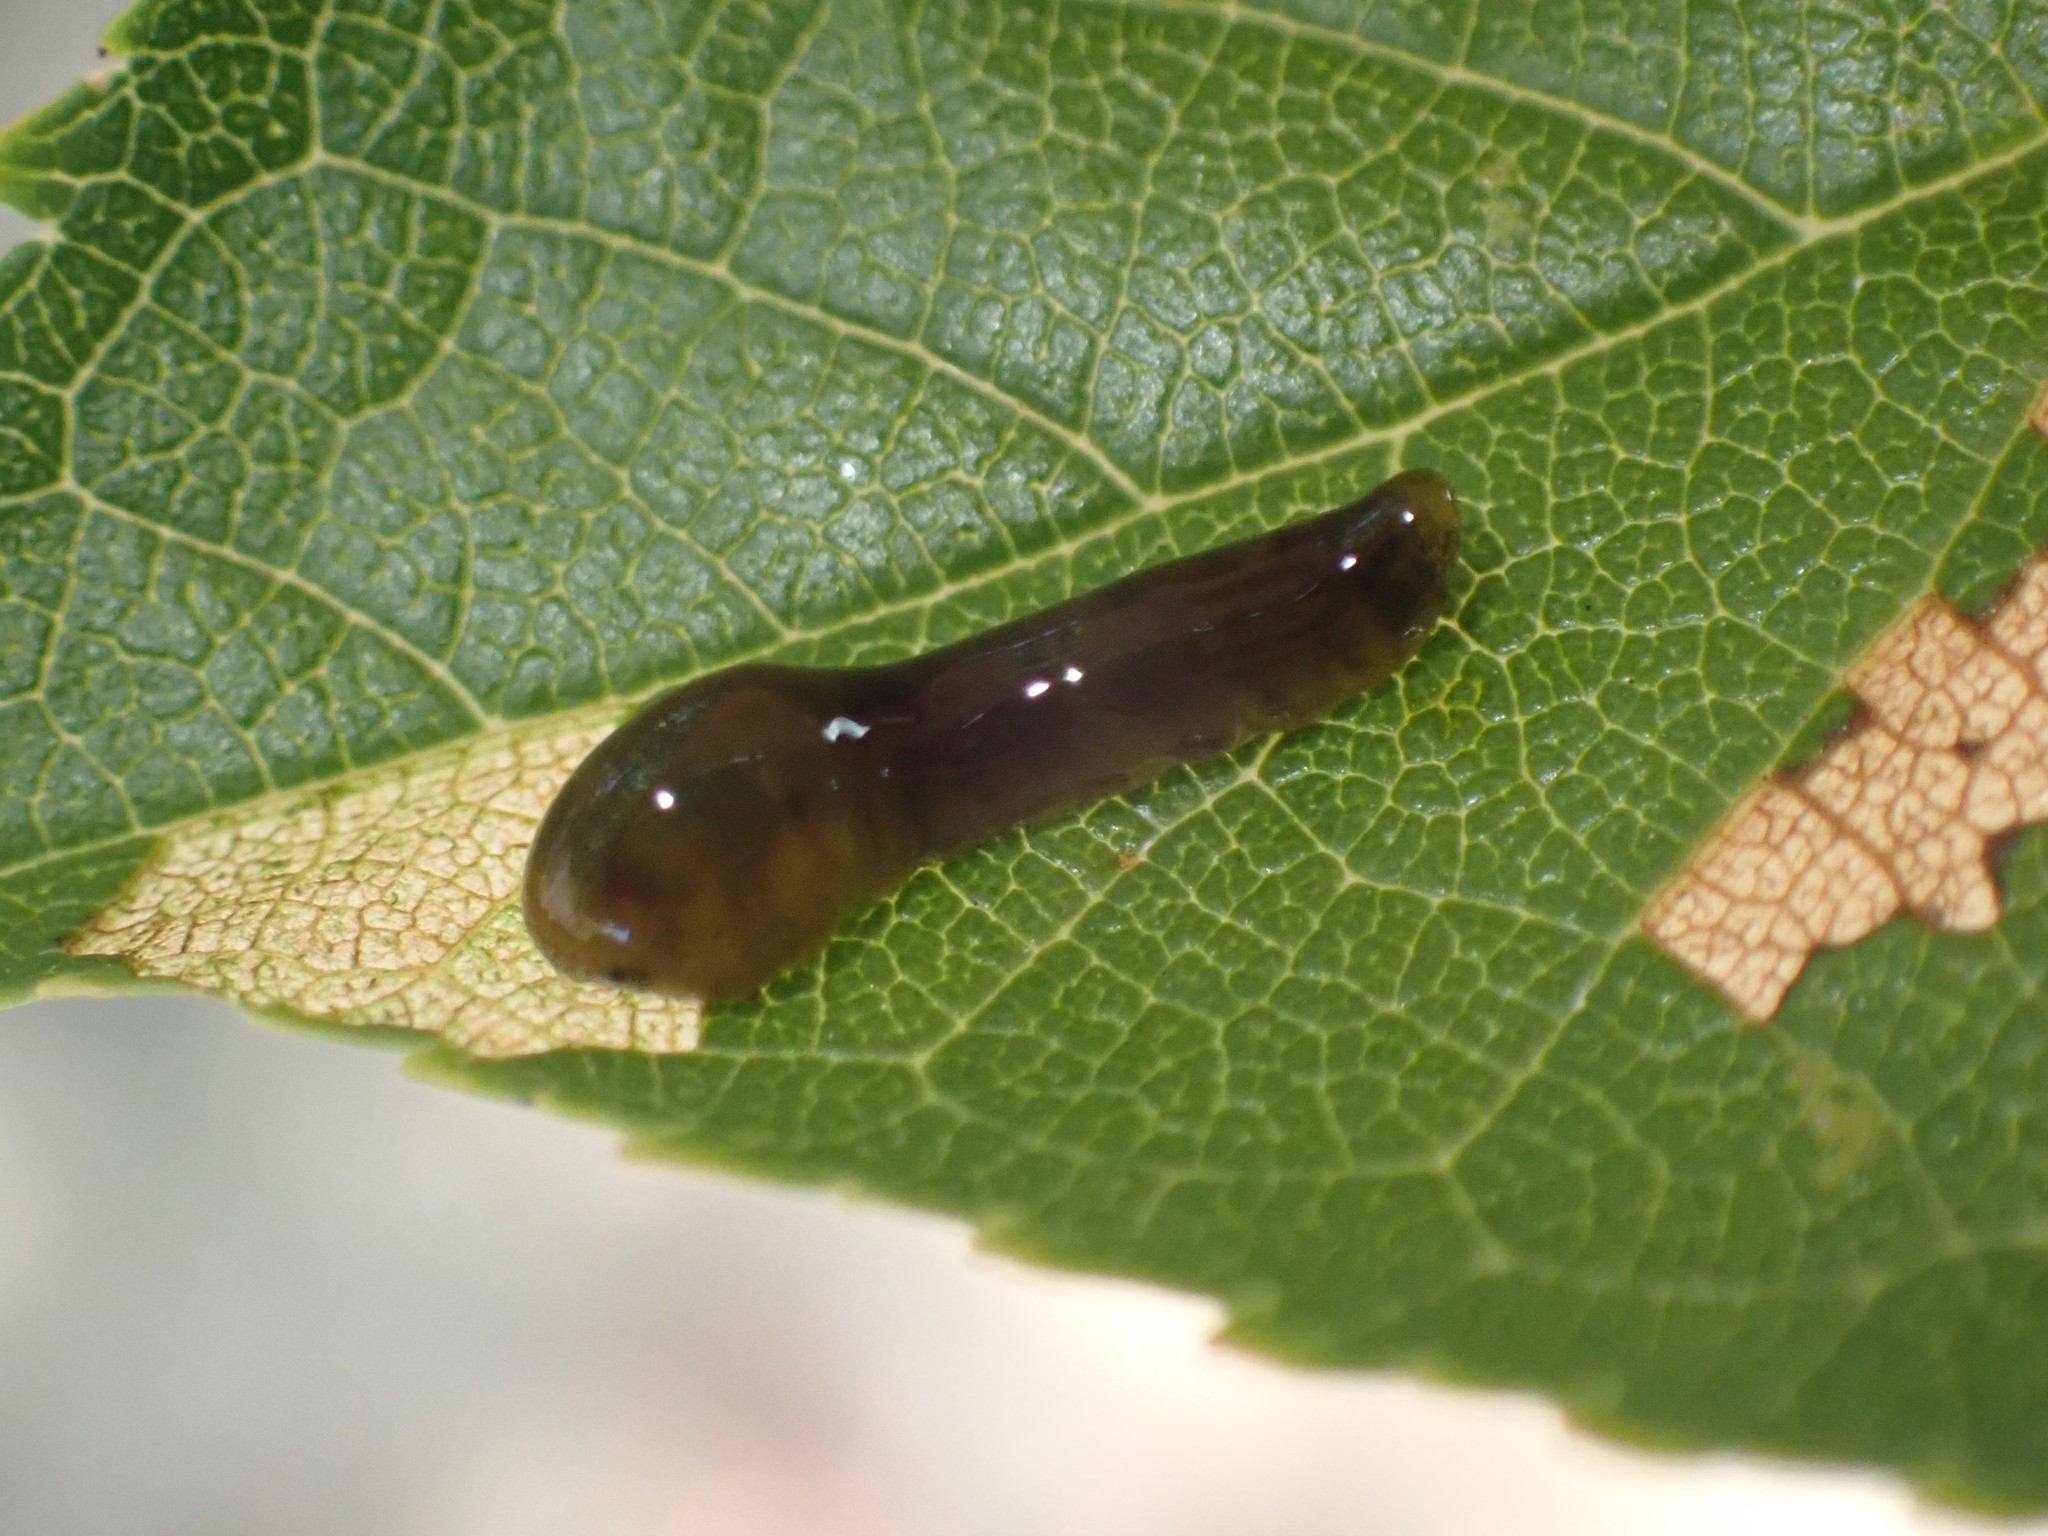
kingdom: Animalia
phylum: Arthropoda
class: Insecta
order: Hymenoptera
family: Tenthredinidae
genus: Caliroa
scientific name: Caliroa cerasi
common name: Pear sawfly
